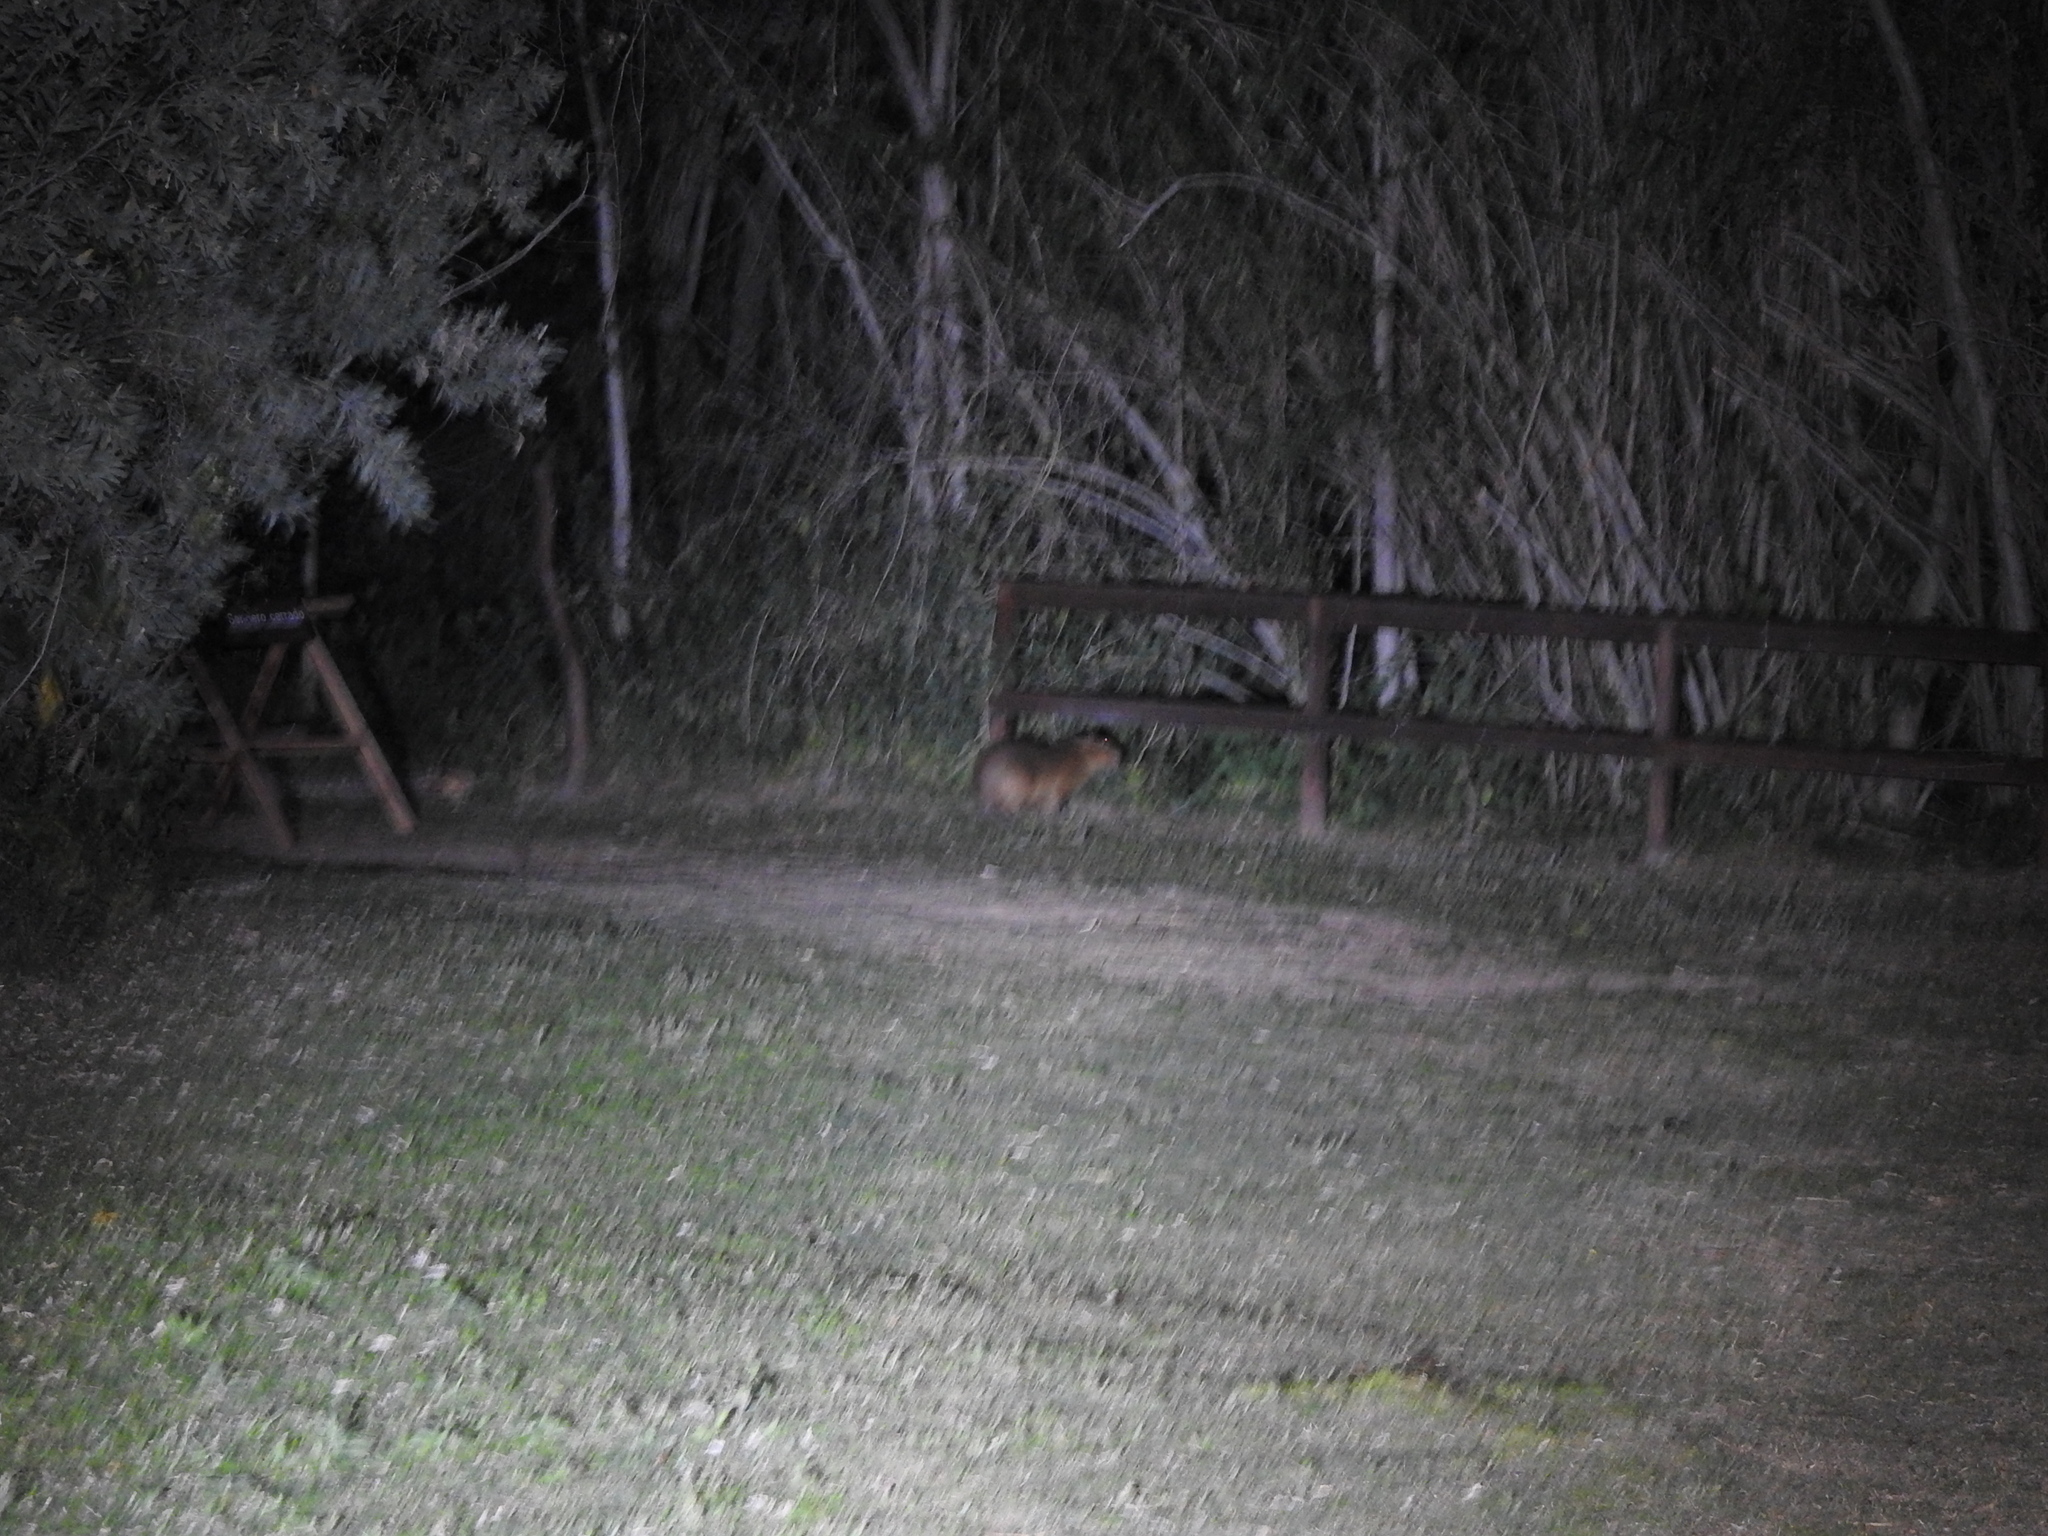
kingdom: Animalia
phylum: Chordata
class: Mammalia
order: Rodentia
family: Caviidae
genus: Hydrochoerus
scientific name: Hydrochoerus hydrochaeris
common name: Capybara
